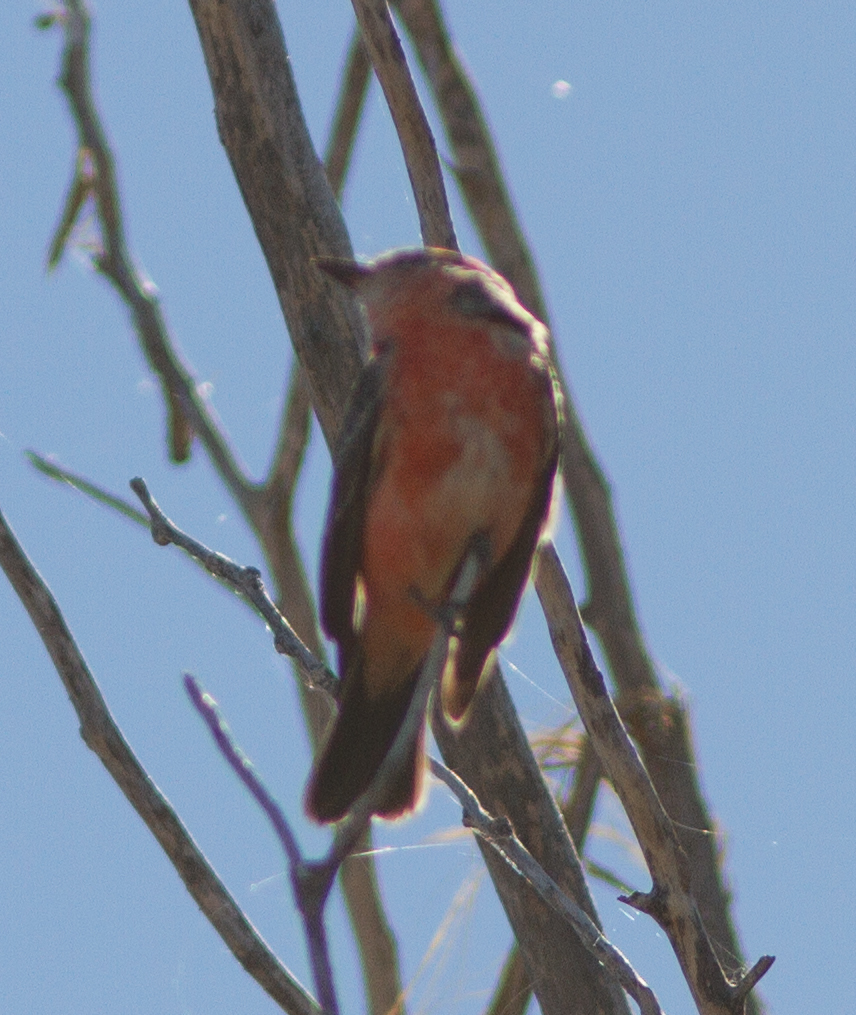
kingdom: Animalia
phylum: Chordata
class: Aves
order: Passeriformes
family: Tyrannidae
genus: Pyrocephalus
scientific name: Pyrocephalus rubinus
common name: Vermilion flycatcher
